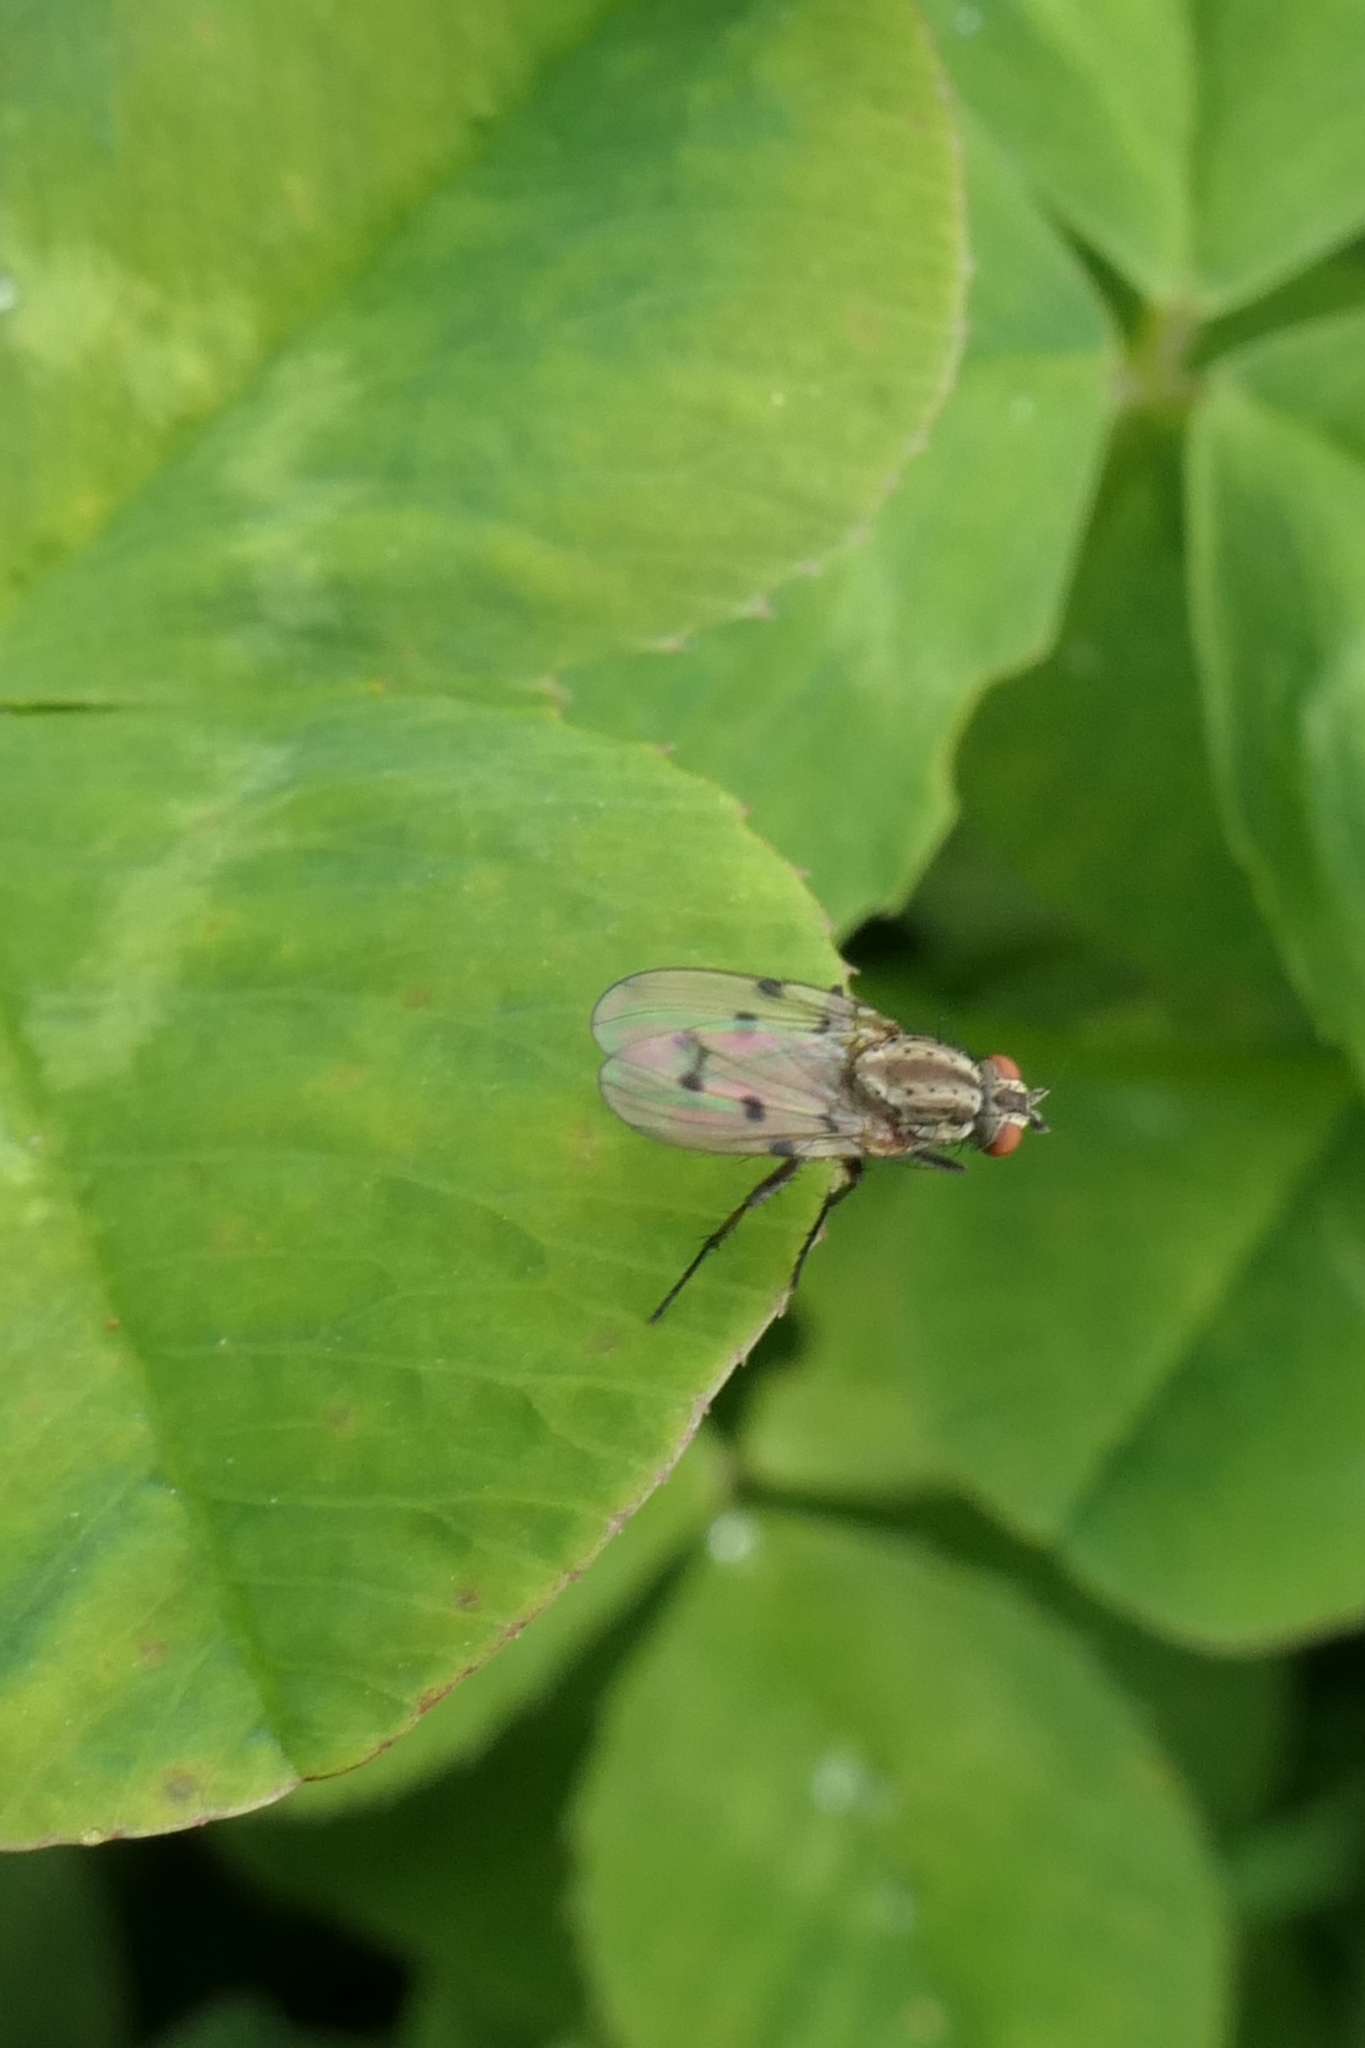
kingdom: Animalia
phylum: Arthropoda
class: Insecta
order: Diptera
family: Anthomyiidae
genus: Anthomyia
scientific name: Anthomyia punctipennis
